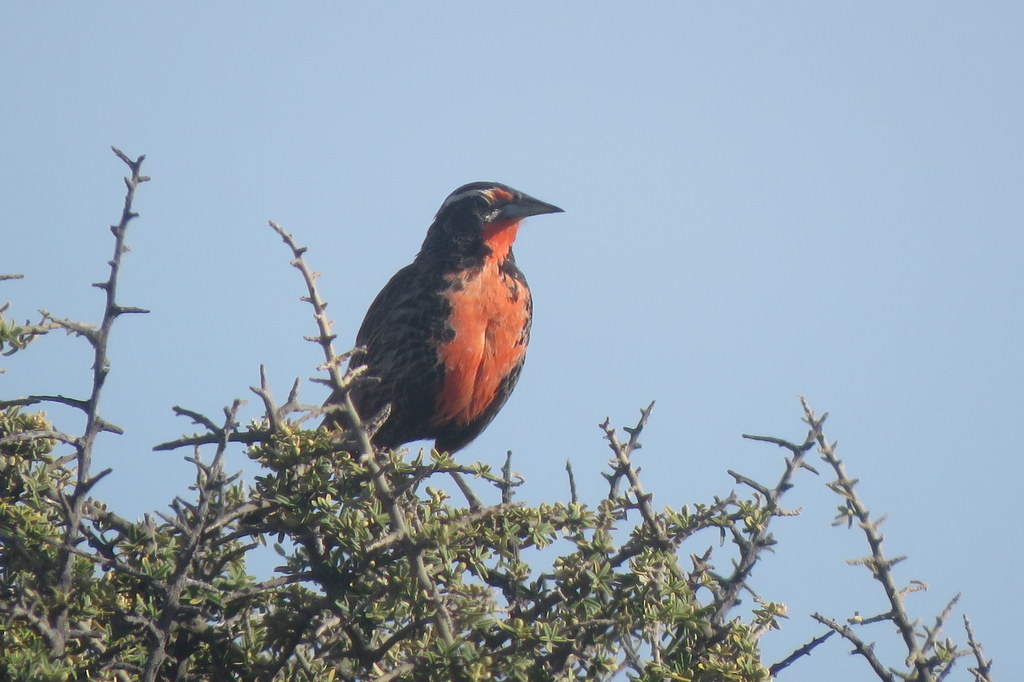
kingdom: Animalia
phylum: Chordata
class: Aves
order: Passeriformes
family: Icteridae
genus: Sturnella
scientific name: Sturnella loyca
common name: Long-tailed meadowlark
